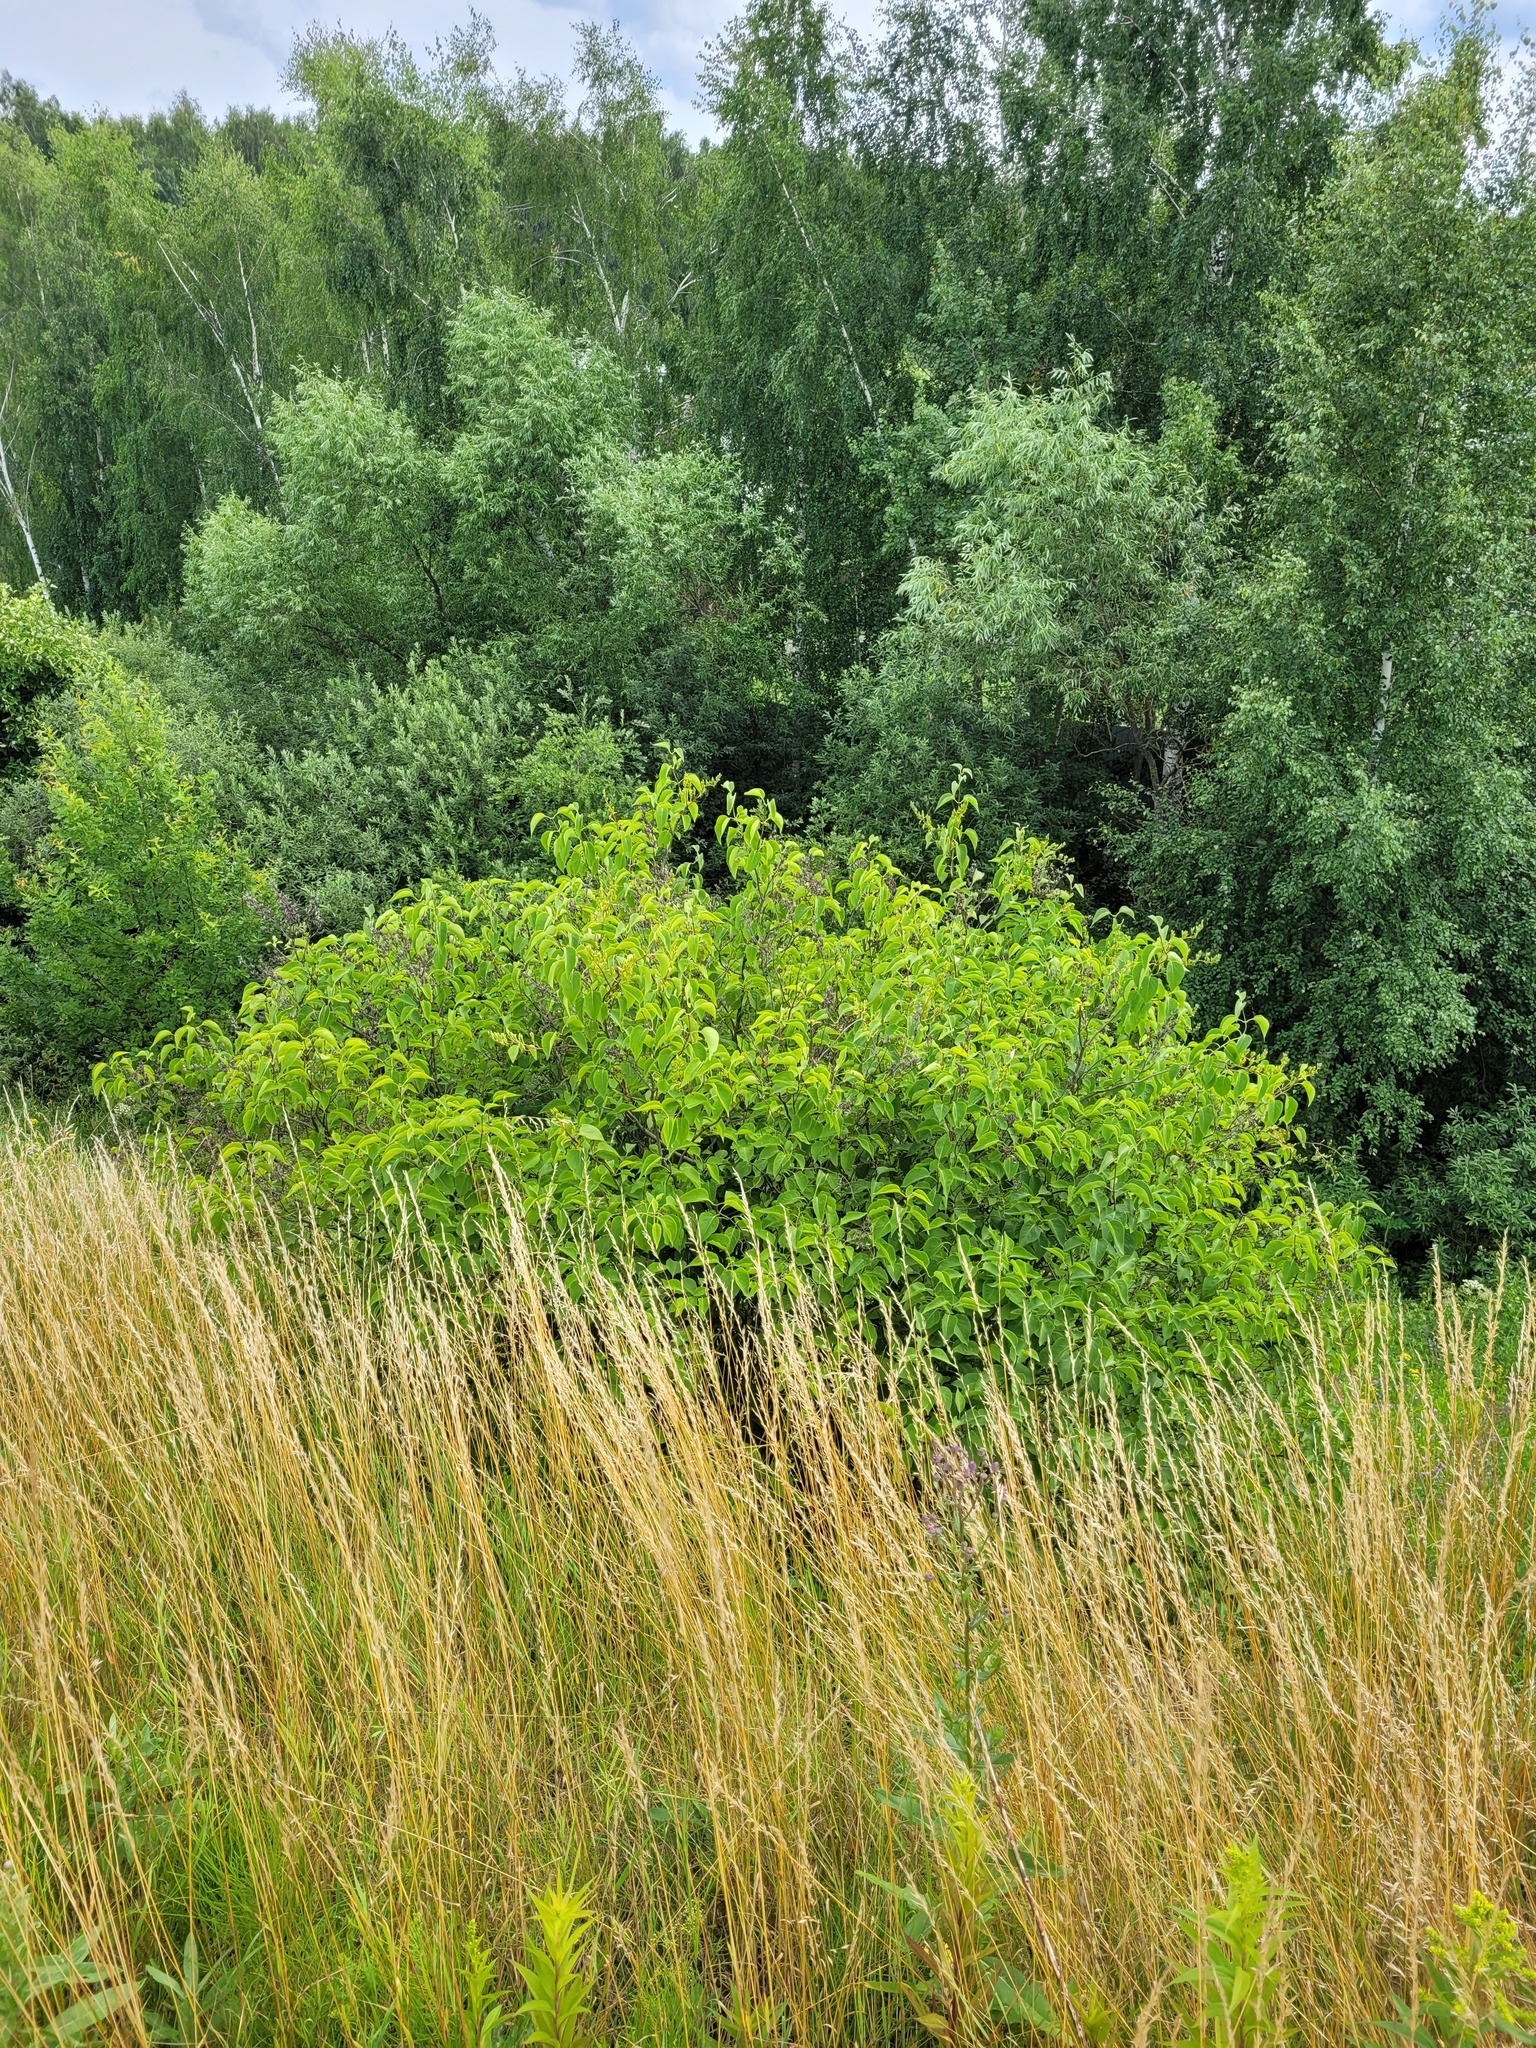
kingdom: Plantae
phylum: Tracheophyta
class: Magnoliopsida
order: Lamiales
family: Oleaceae
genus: Syringa
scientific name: Syringa vulgaris
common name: Common lilac
